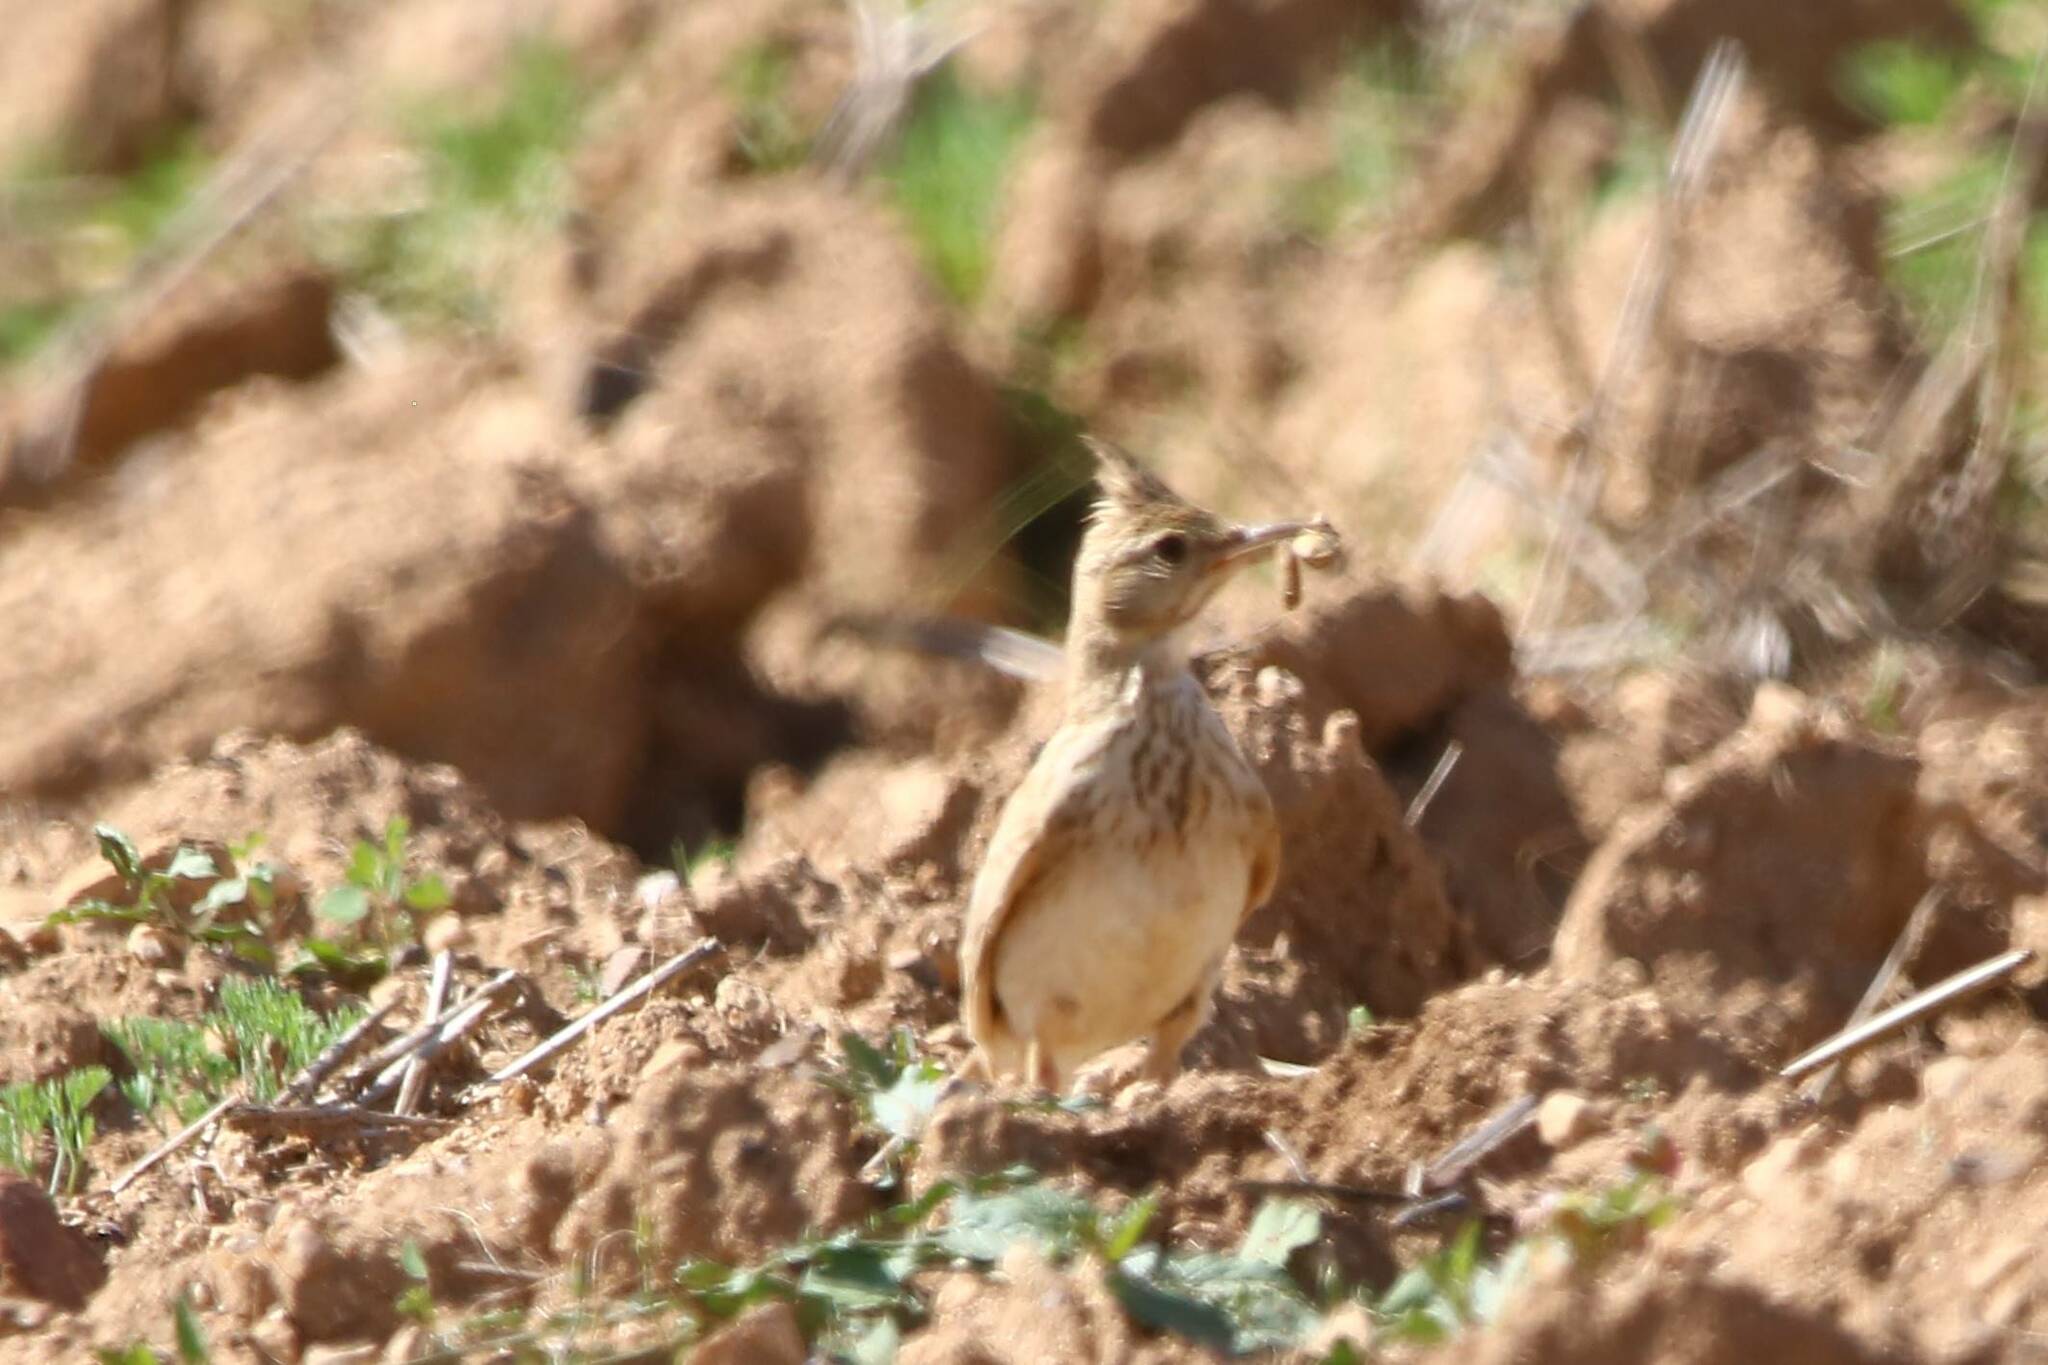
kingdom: Animalia
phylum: Chordata
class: Aves
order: Passeriformes
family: Alaudidae
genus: Galerida
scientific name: Galerida cristata
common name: Crested lark
